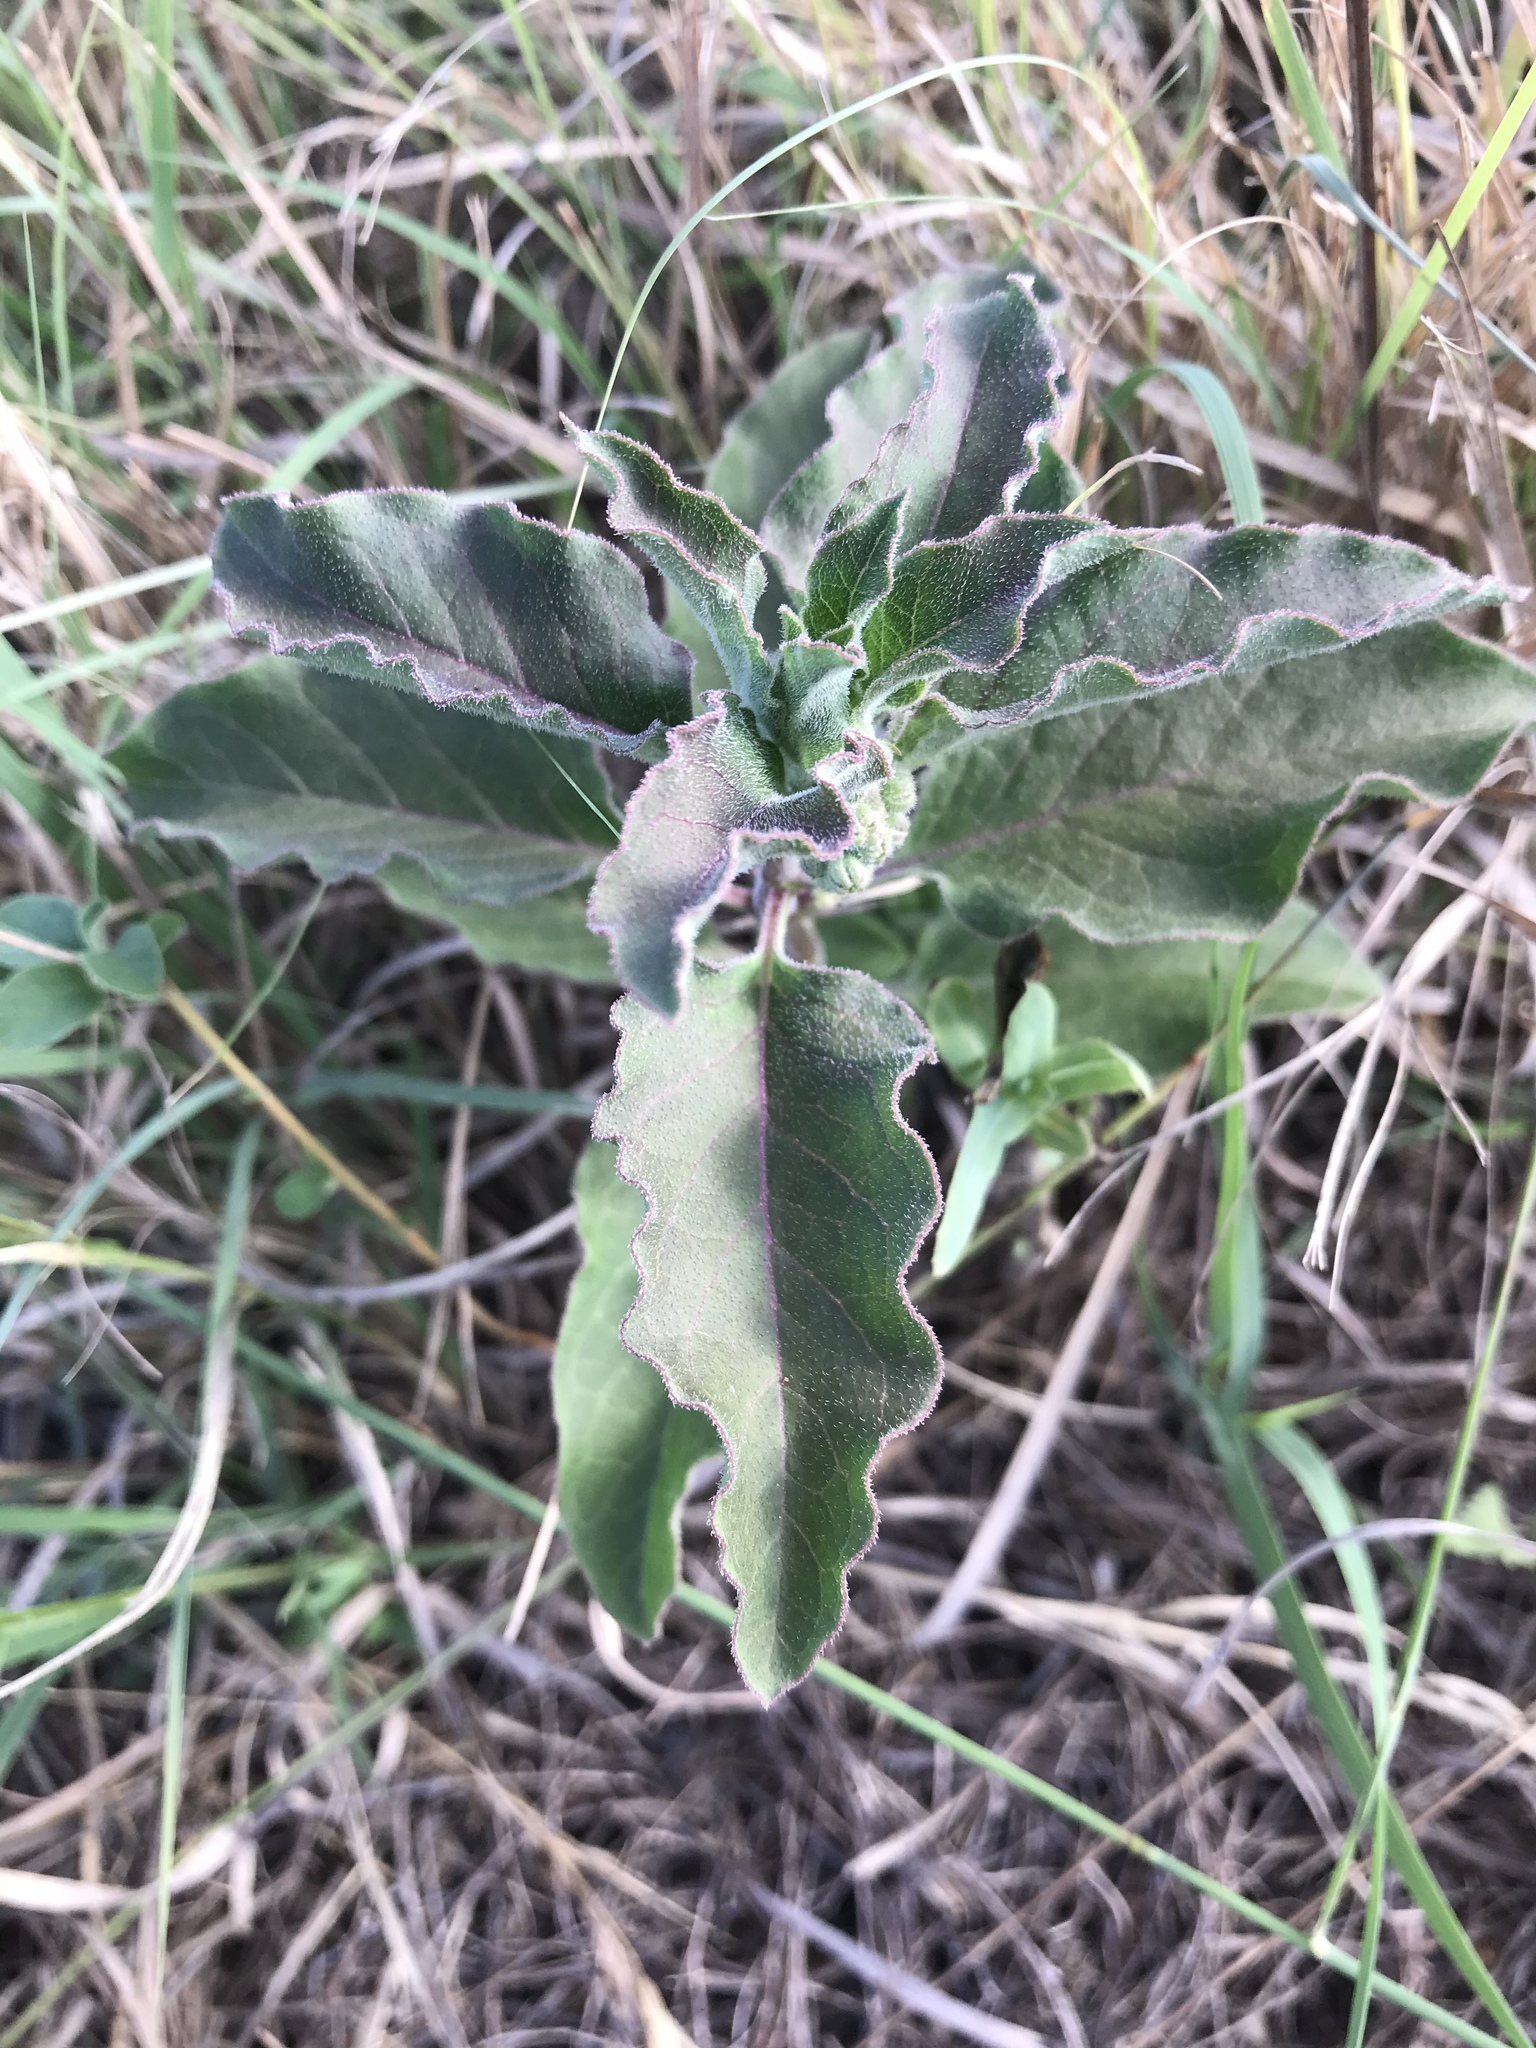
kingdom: Plantae
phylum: Tracheophyta
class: Magnoliopsida
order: Gentianales
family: Apocynaceae
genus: Asclepias
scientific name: Asclepias oenotheroides
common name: Zizotes milkweed
